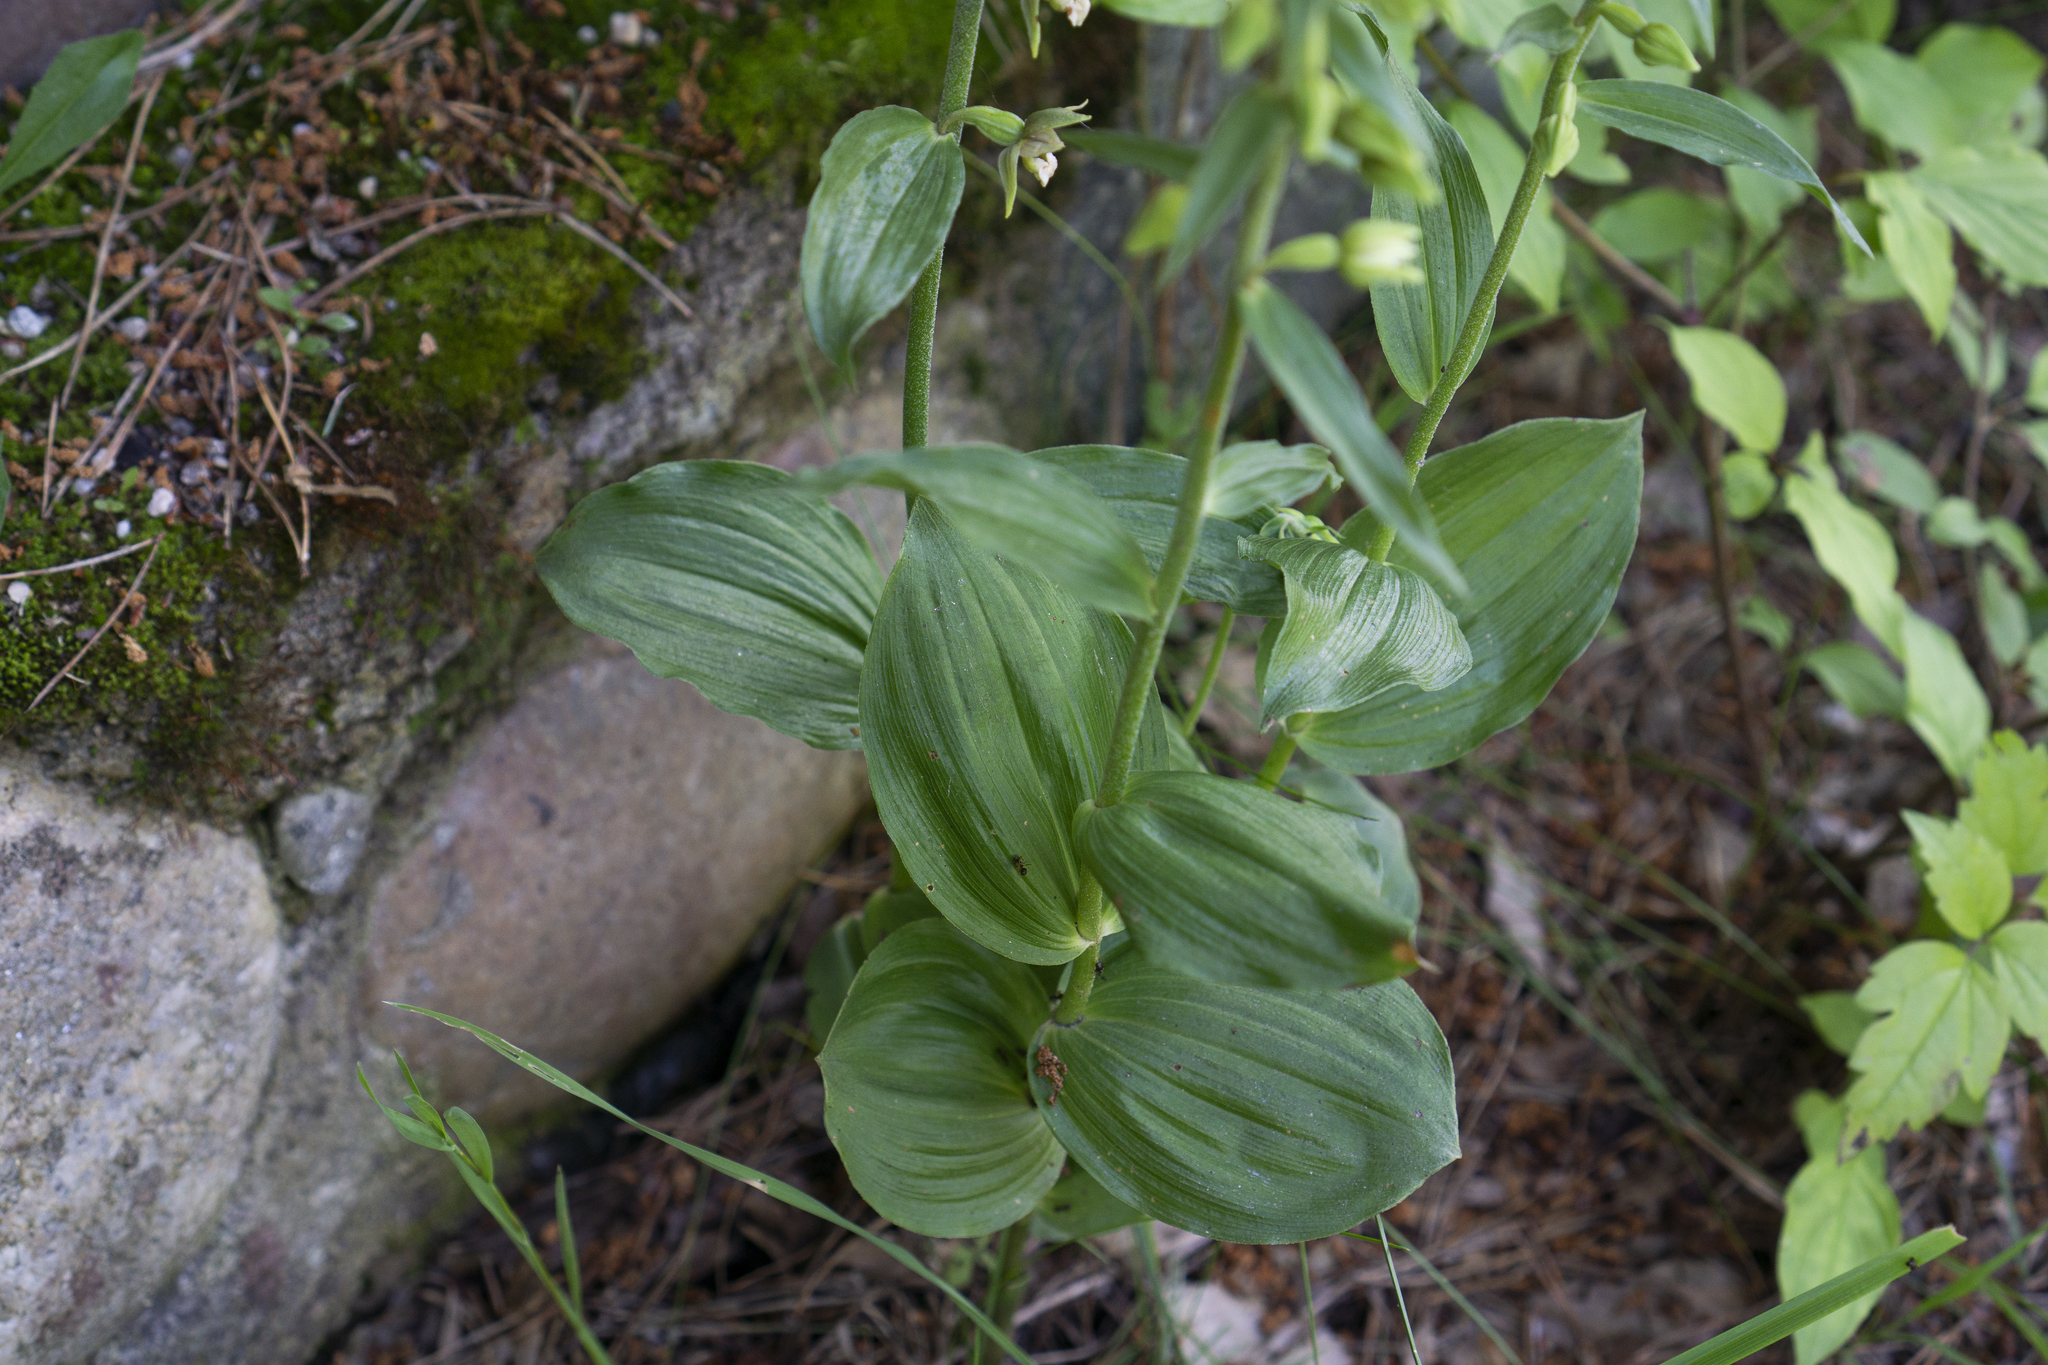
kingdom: Plantae
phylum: Tracheophyta
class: Liliopsida
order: Asparagales
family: Orchidaceae
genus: Epipactis
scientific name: Epipactis helleborine
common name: Broad-leaved helleborine
